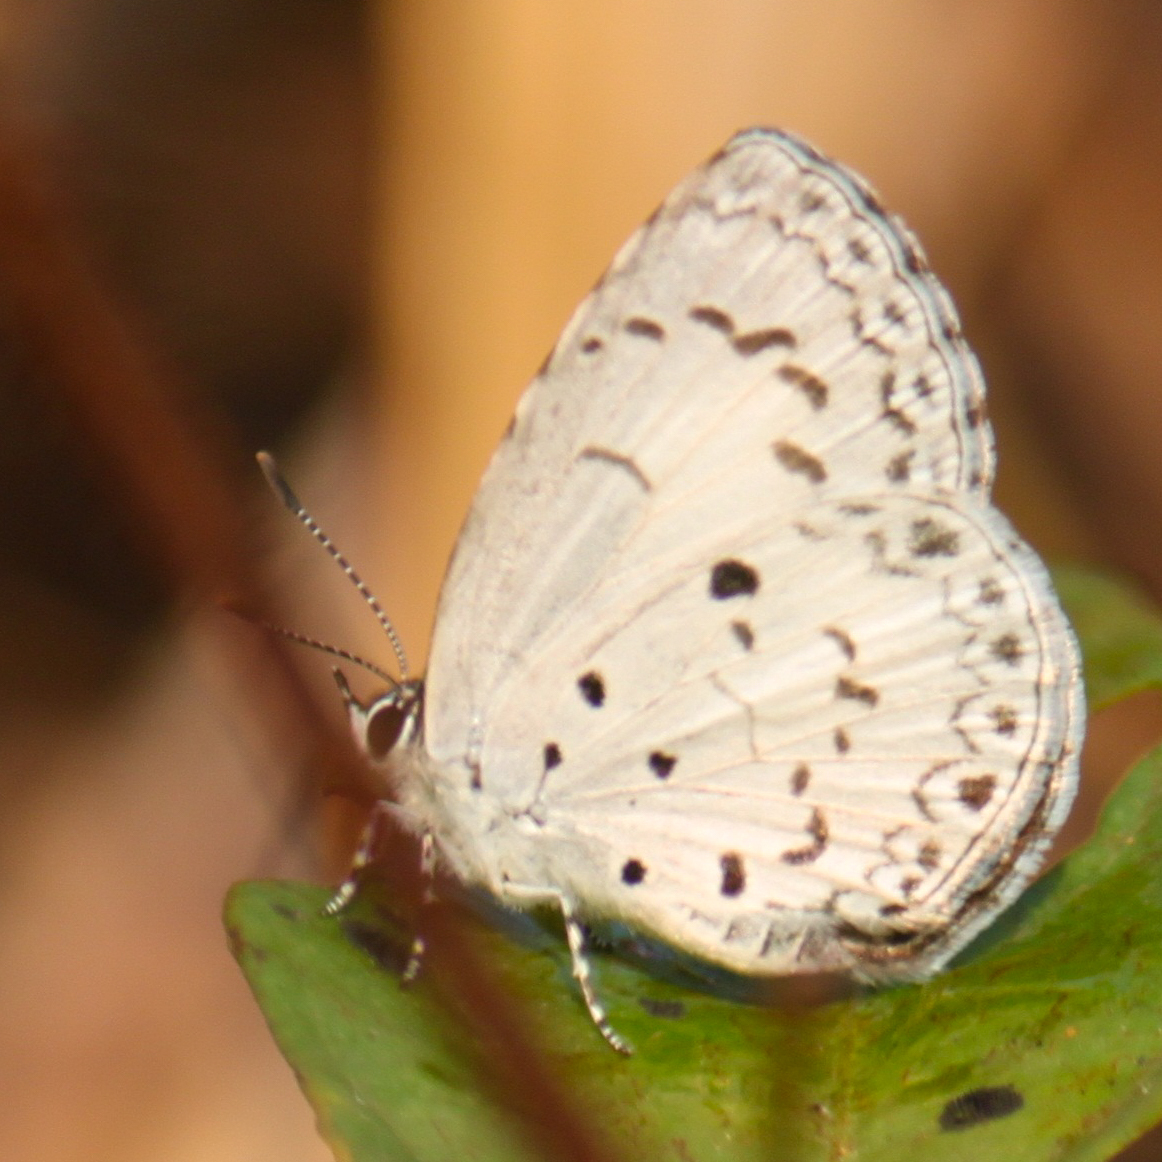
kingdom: Animalia
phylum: Arthropoda
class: Insecta
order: Lepidoptera
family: Lycaenidae
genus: Acytolepis
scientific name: Acytolepis puspa
